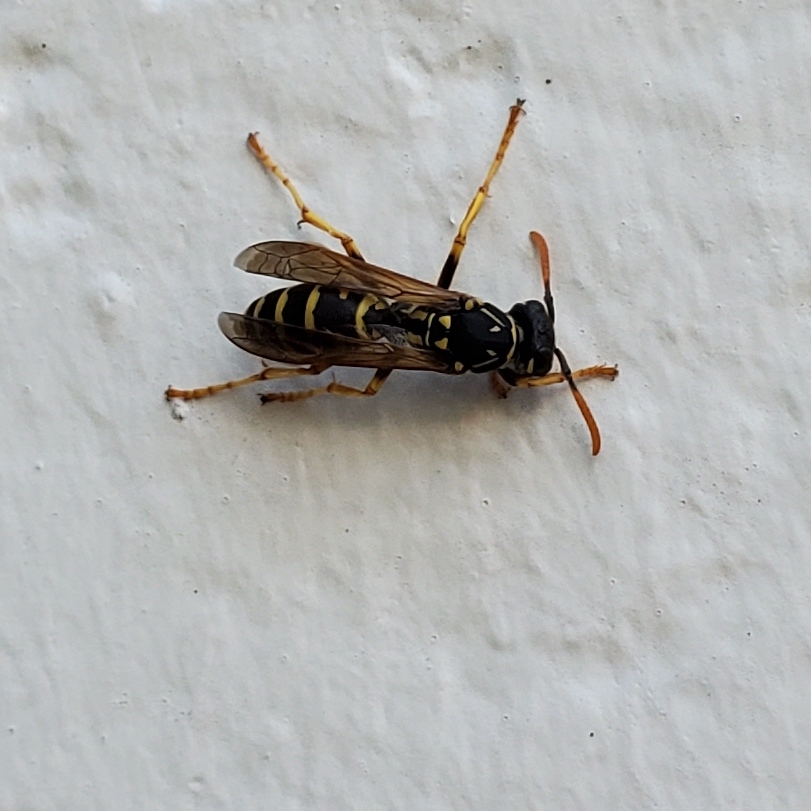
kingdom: Animalia
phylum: Arthropoda
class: Insecta
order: Hymenoptera
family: Eumenidae
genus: Polistes
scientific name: Polistes dominula
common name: Paper wasp
